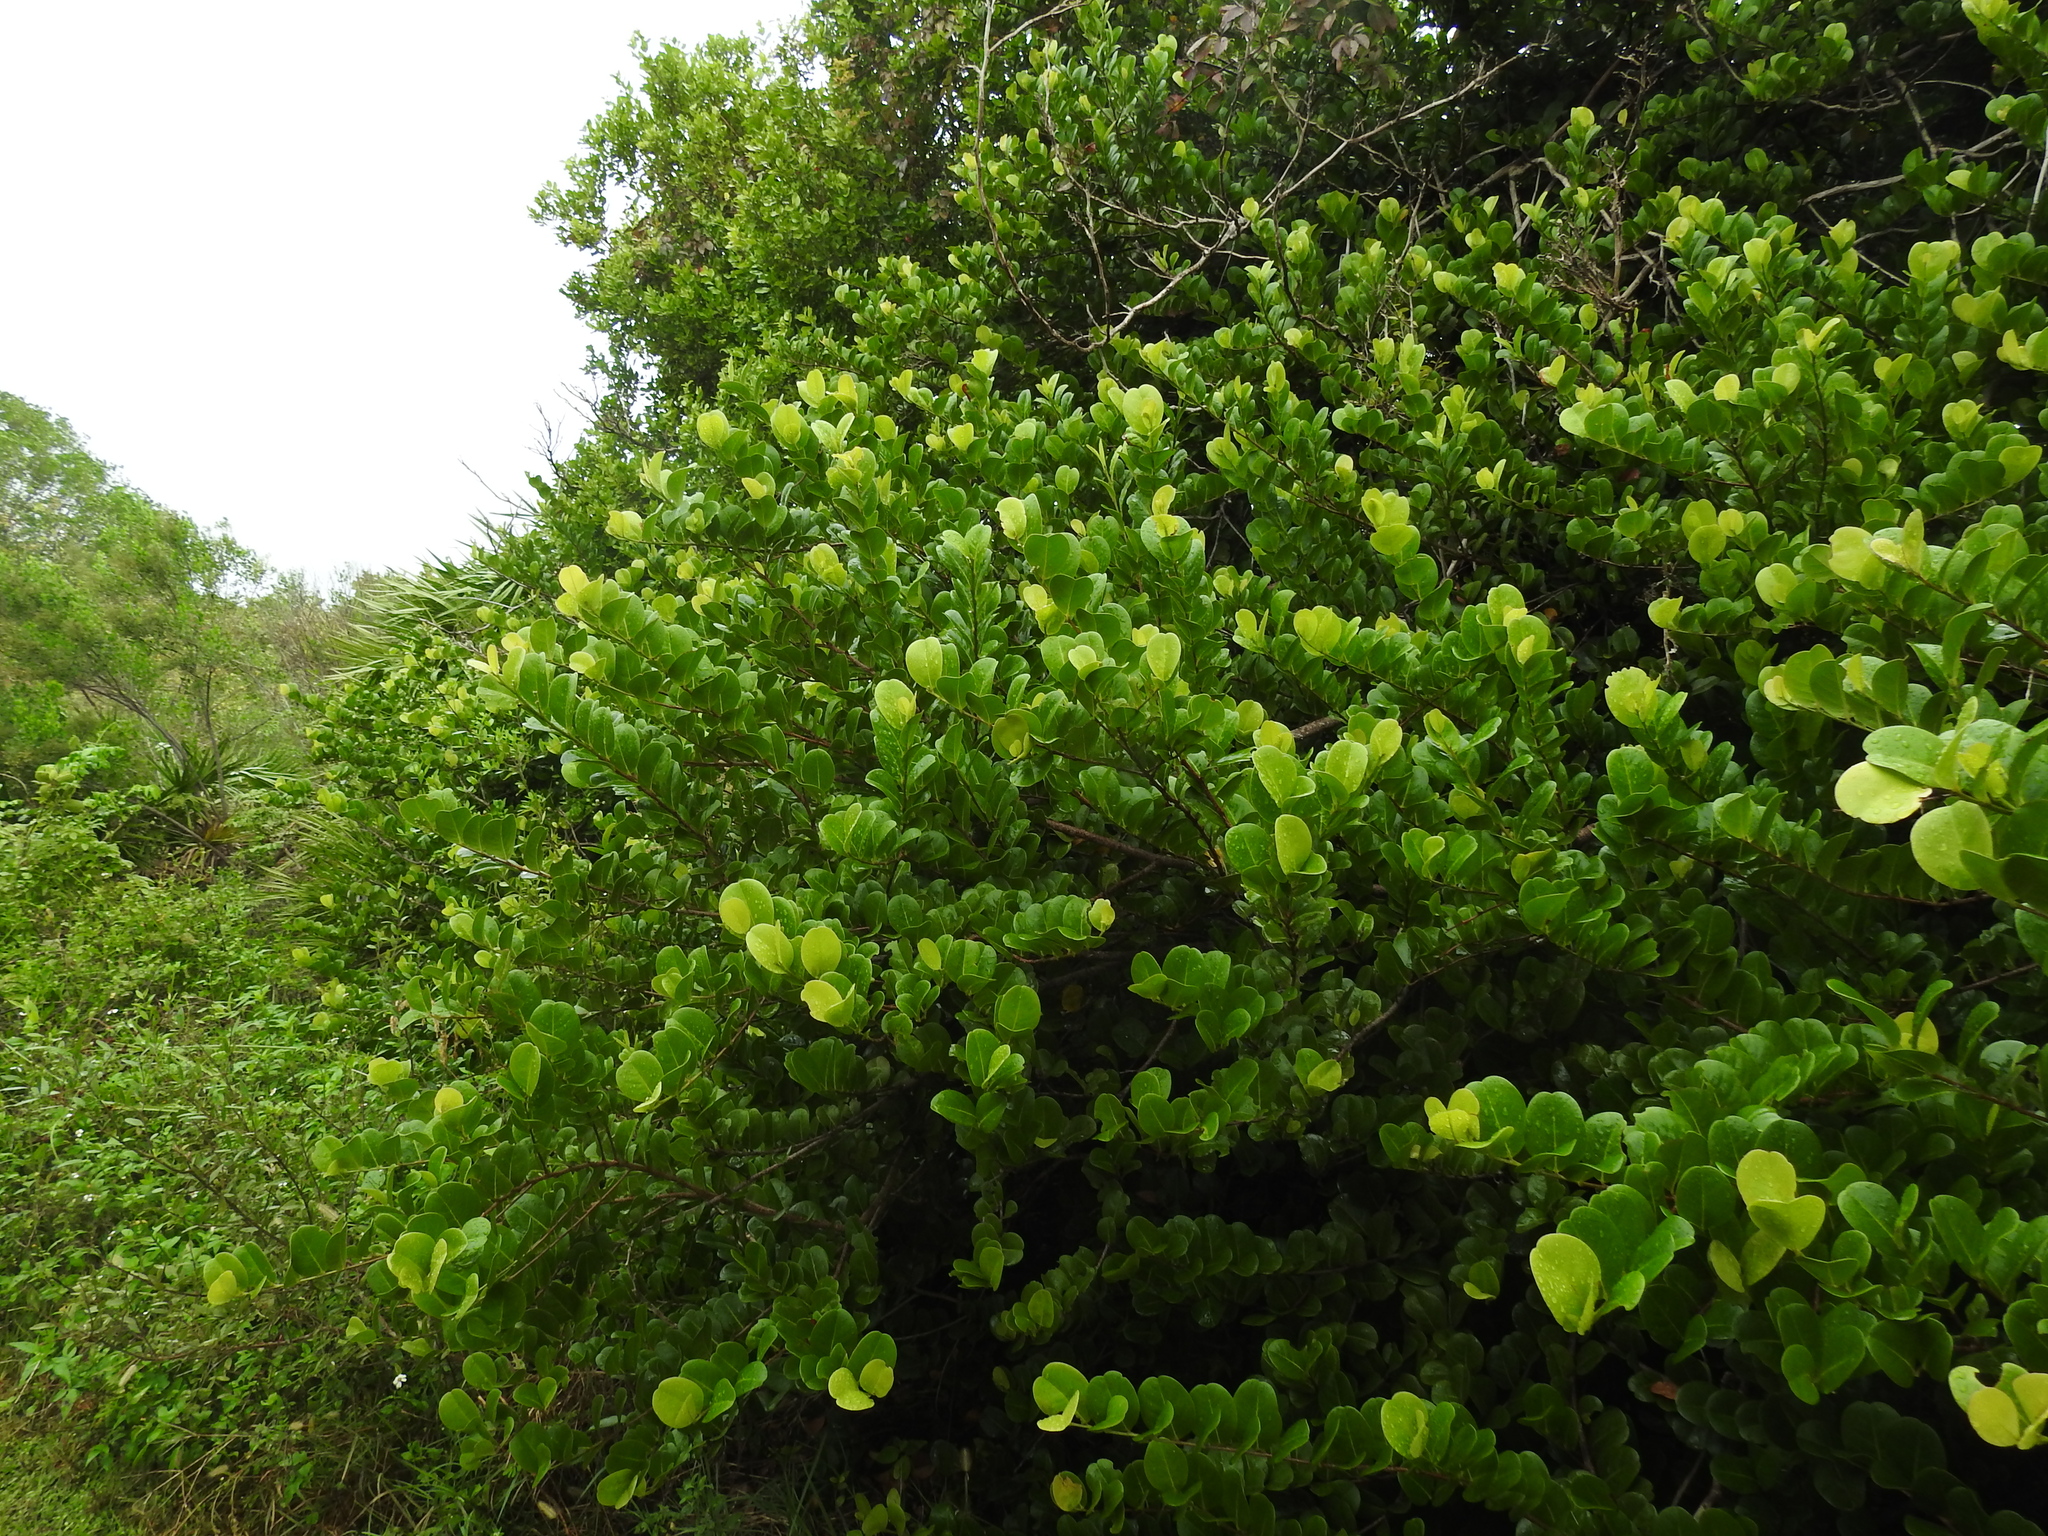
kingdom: Plantae
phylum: Tracheophyta
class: Magnoliopsida
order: Malpighiales
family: Chrysobalanaceae
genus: Chrysobalanus
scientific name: Chrysobalanus icaco
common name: Coco plum
